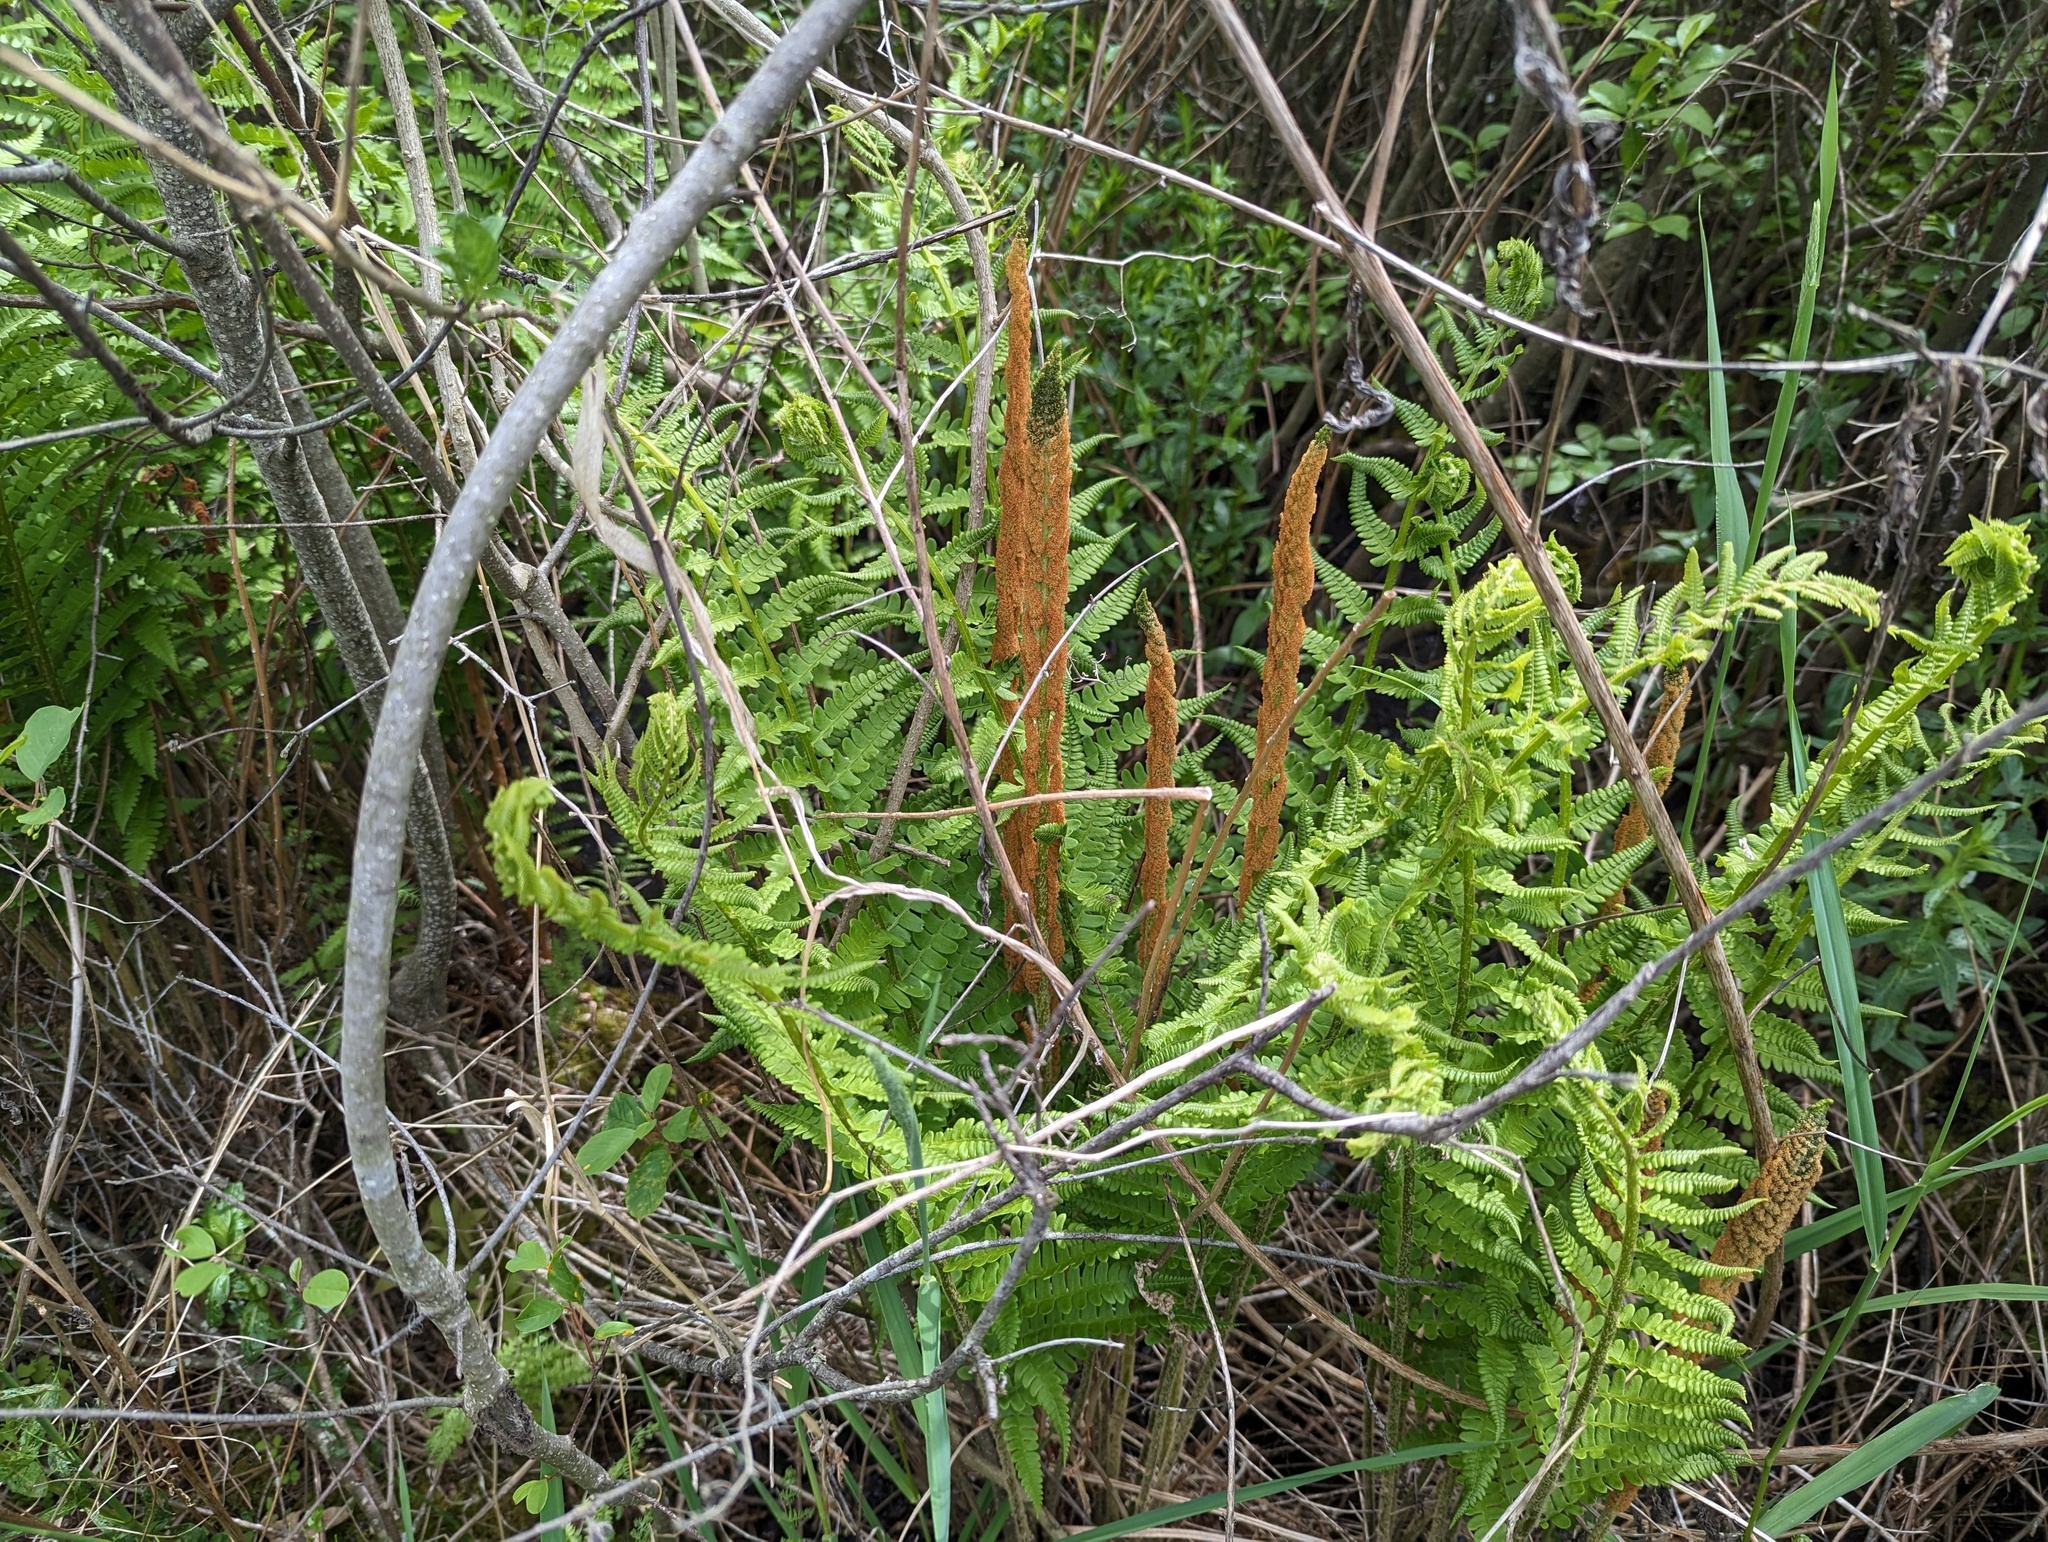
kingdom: Plantae
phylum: Tracheophyta
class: Polypodiopsida
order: Osmundales
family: Osmundaceae
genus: Osmundastrum
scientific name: Osmundastrum cinnamomeum
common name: Cinnamon fern
